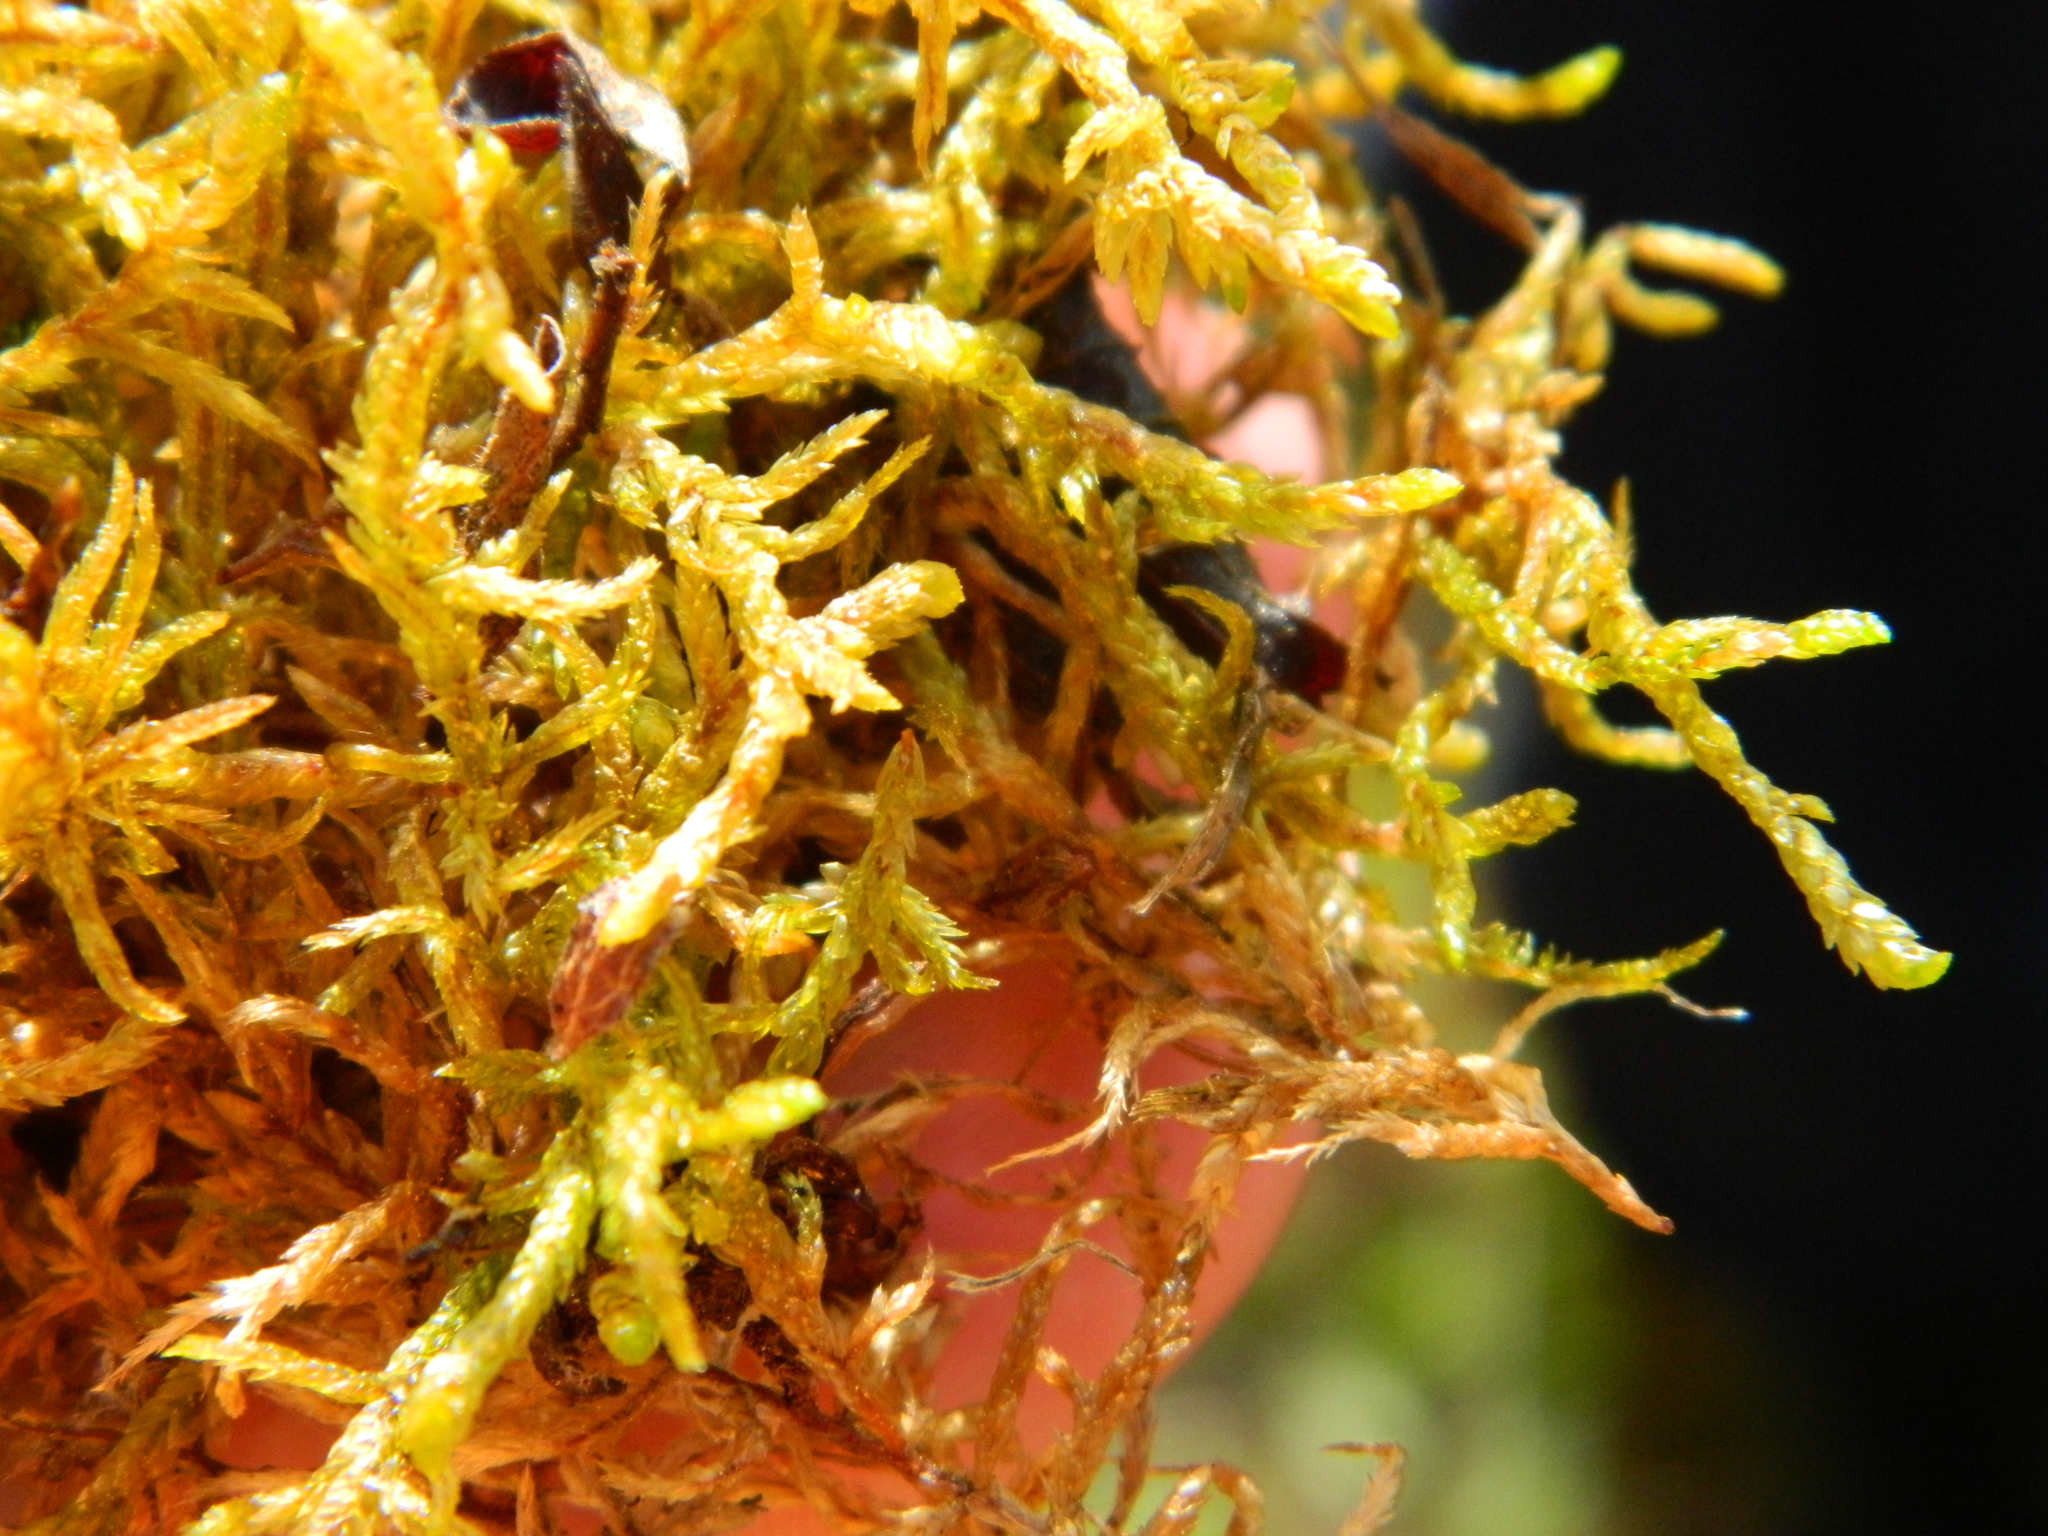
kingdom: Plantae
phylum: Bryophyta
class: Bryopsida
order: Hypnales
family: Hylocomiaceae
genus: Pleurozium
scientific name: Pleurozium schreberi
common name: Red-stemmed feather moss
